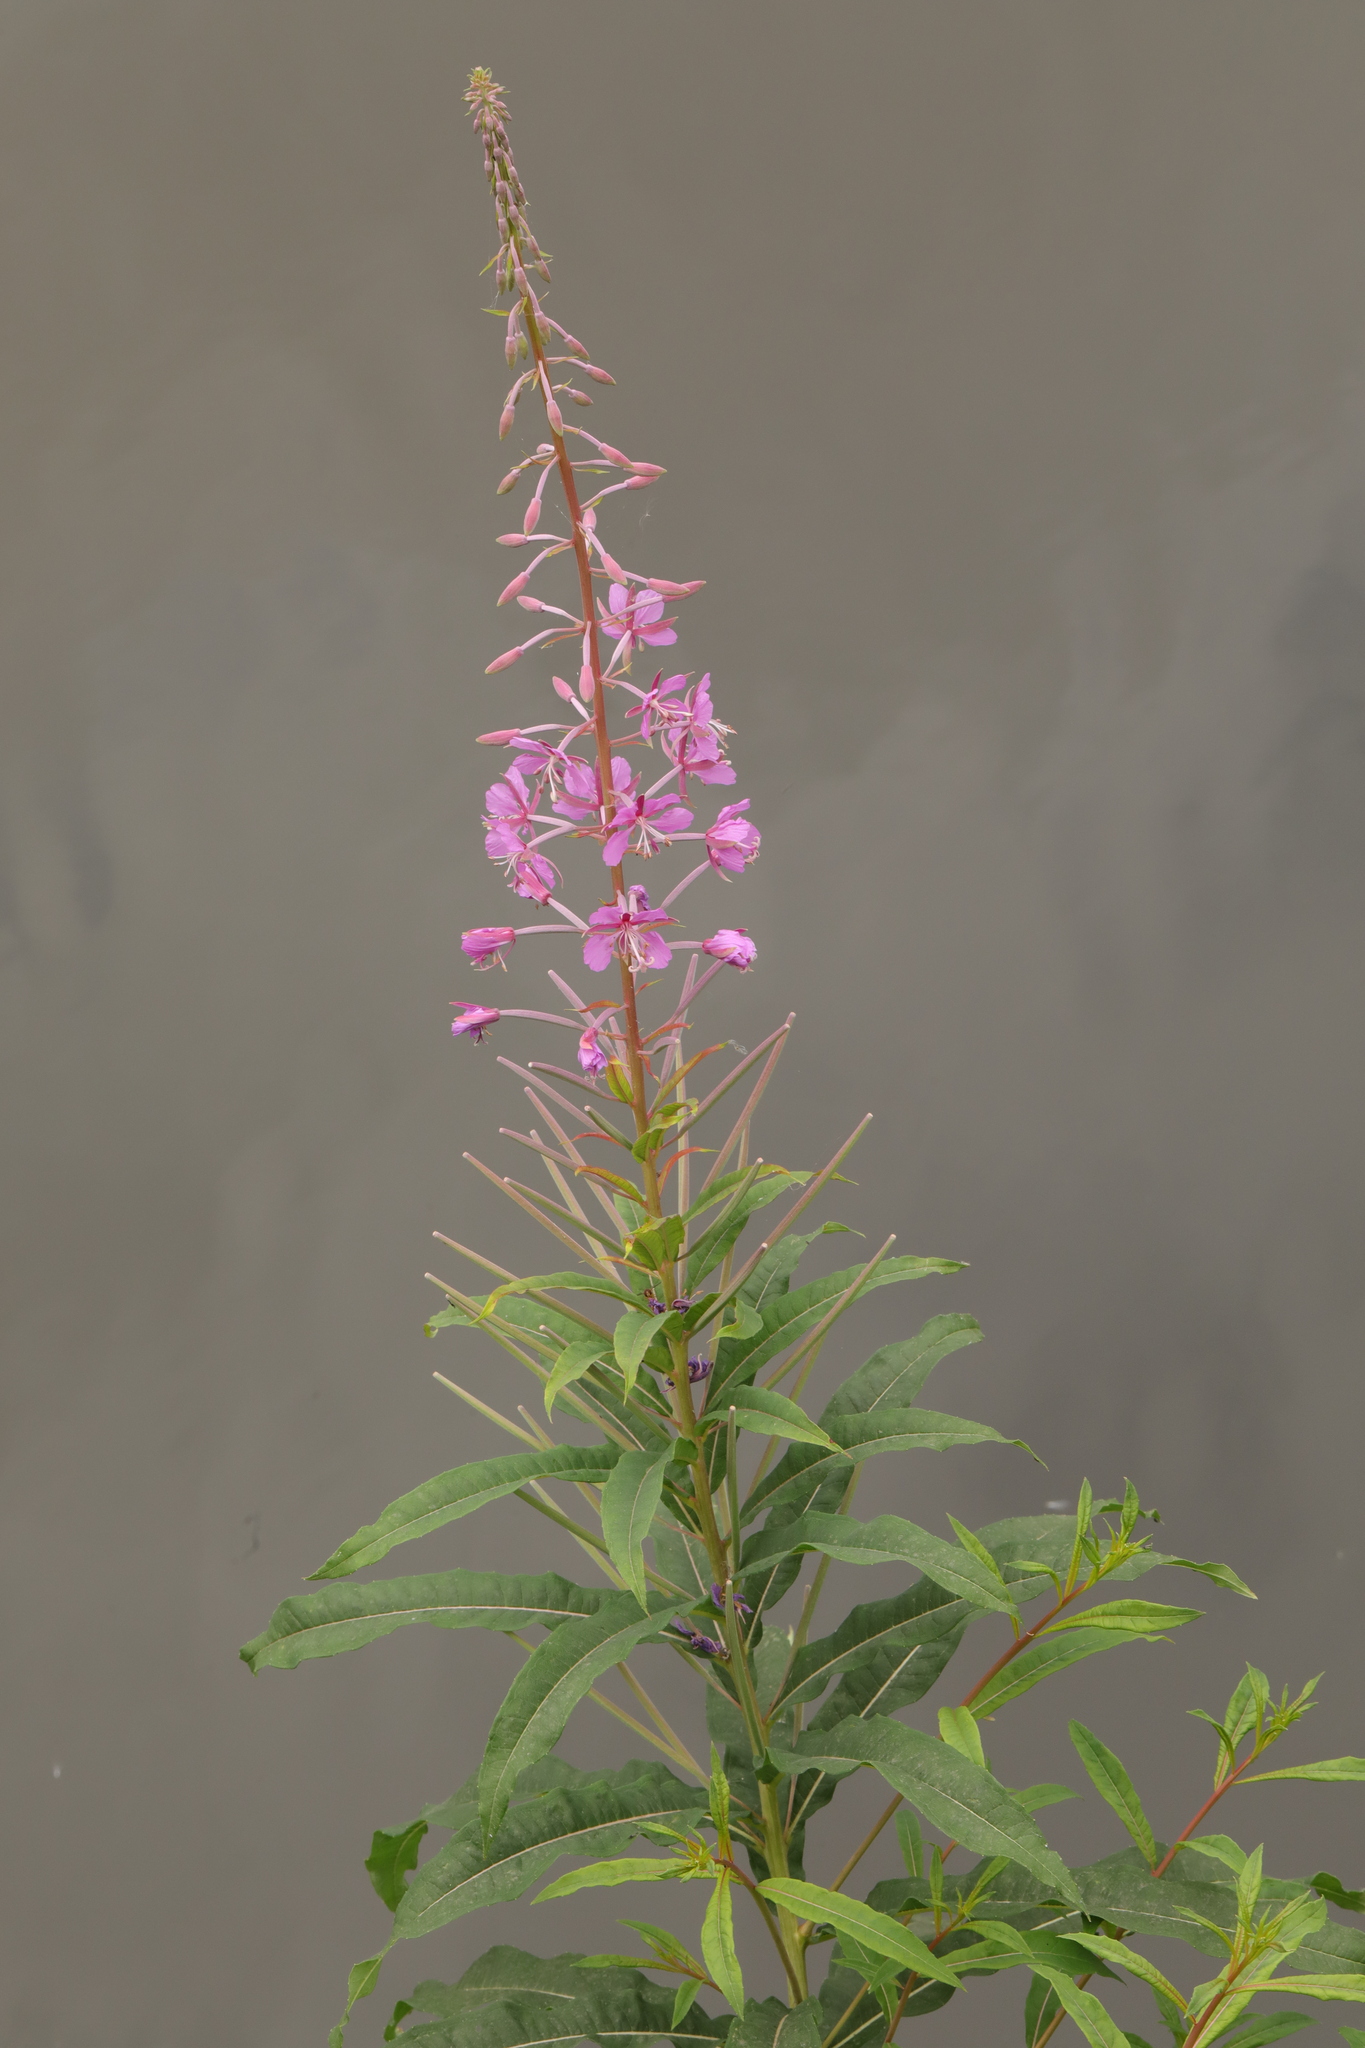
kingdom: Plantae
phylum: Tracheophyta
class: Magnoliopsida
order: Myrtales
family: Onagraceae
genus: Chamaenerion
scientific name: Chamaenerion angustifolium
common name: Fireweed
